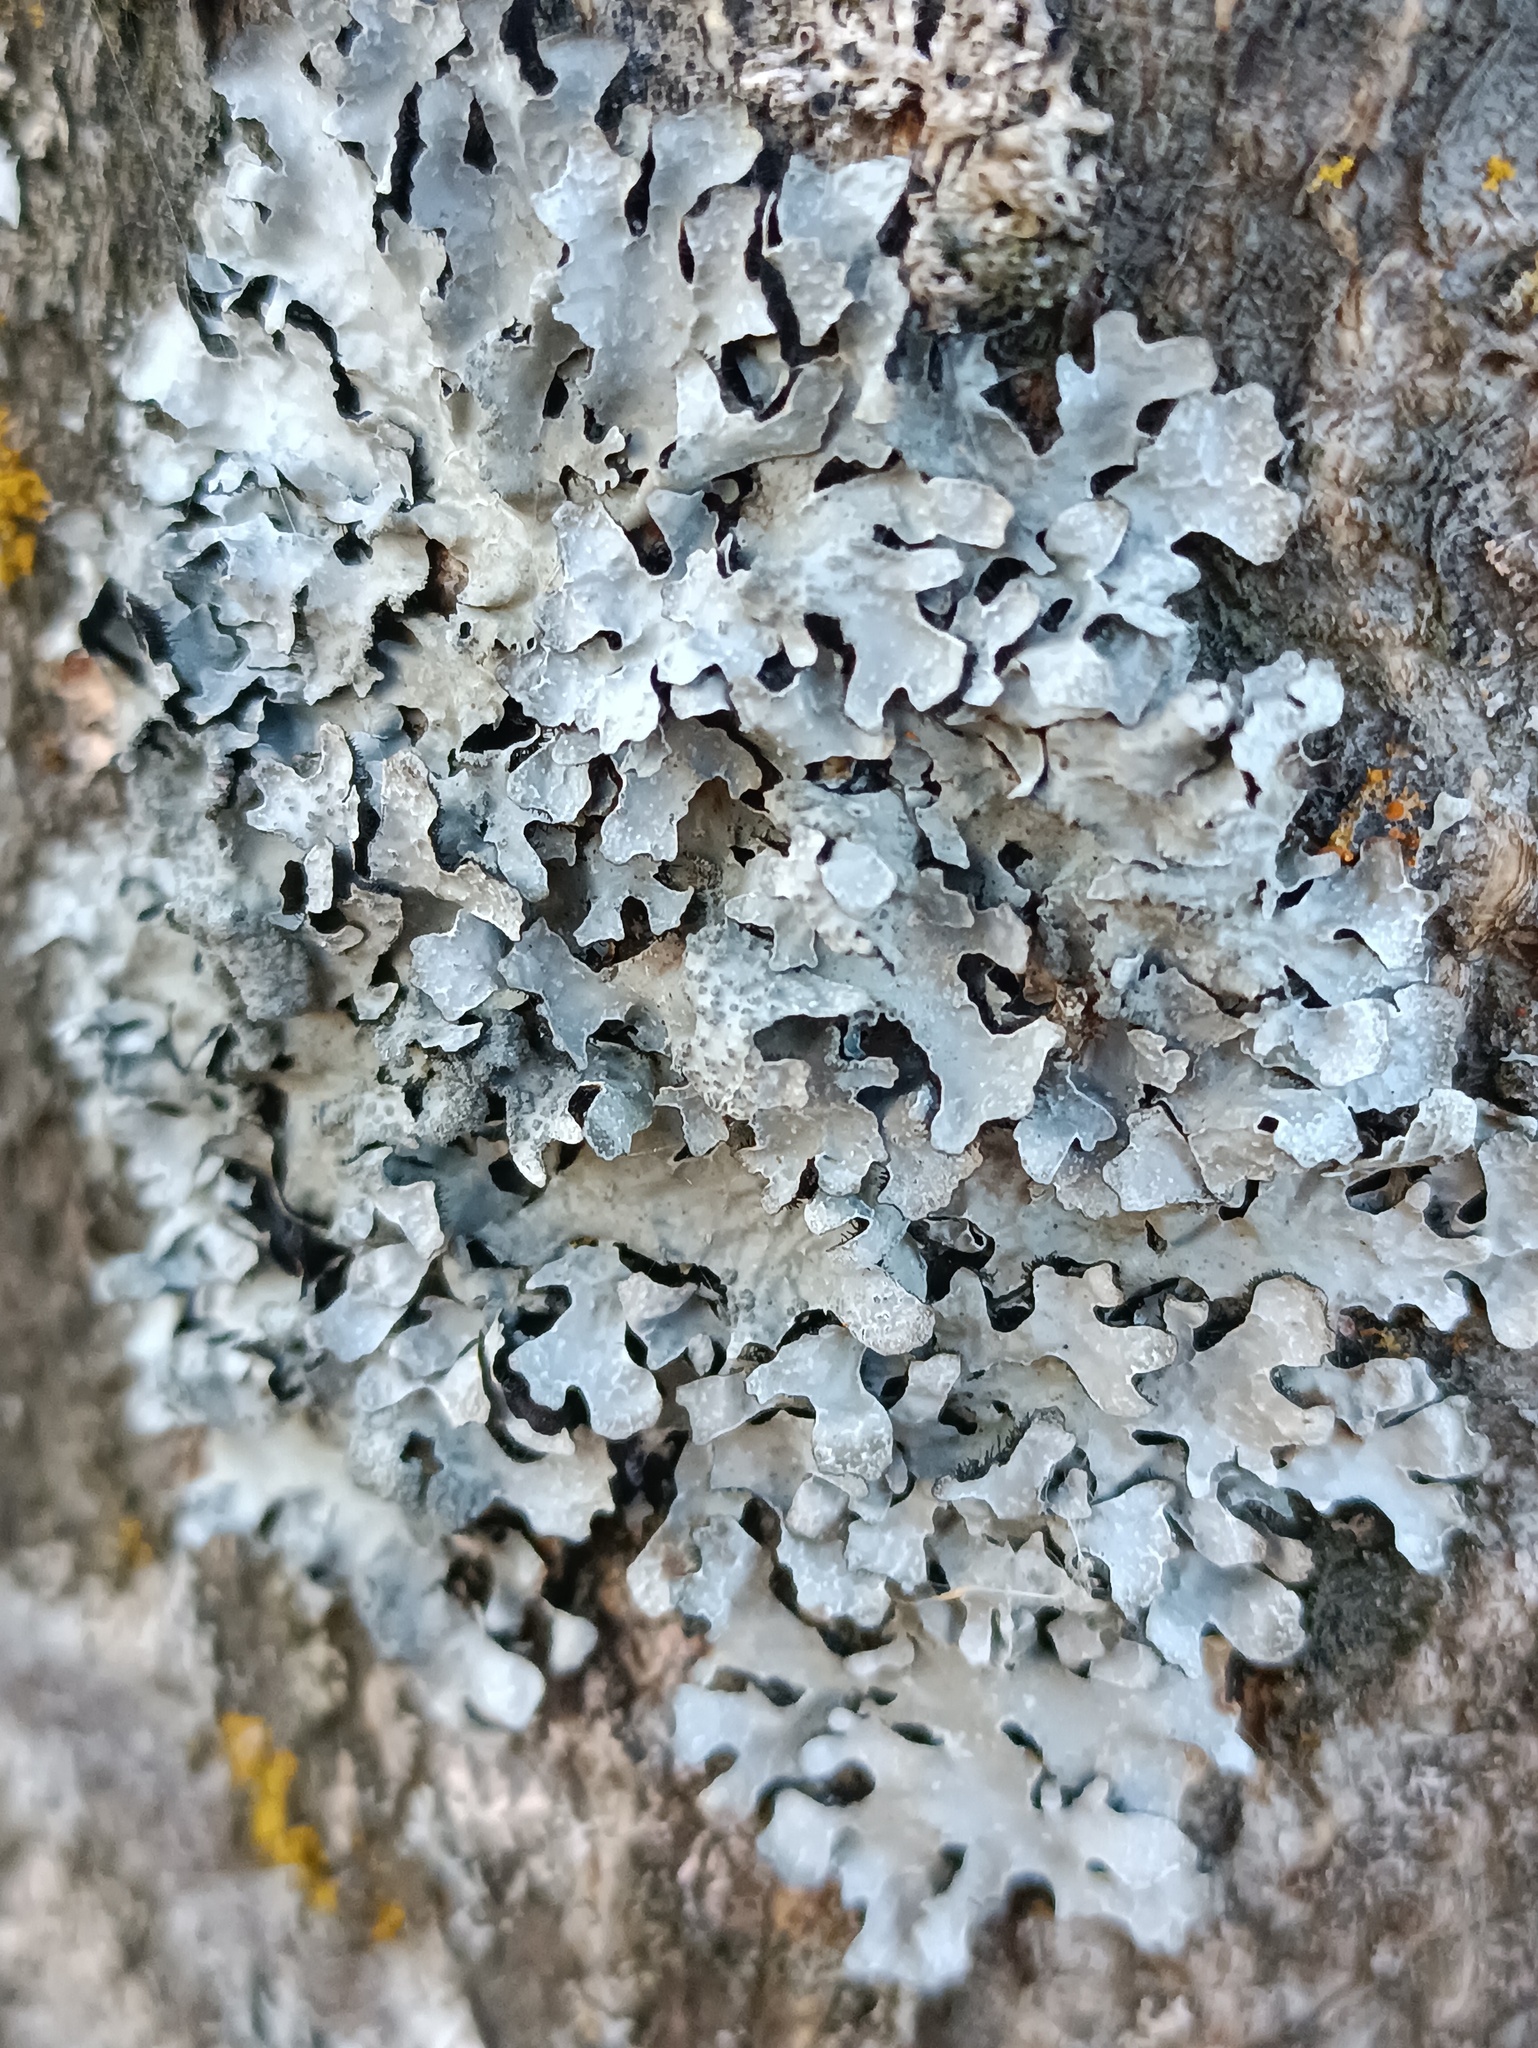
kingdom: Fungi
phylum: Ascomycota
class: Lecanoromycetes
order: Lecanorales
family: Parmeliaceae
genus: Parmelia
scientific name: Parmelia sulcata
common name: Netted shield lichen
